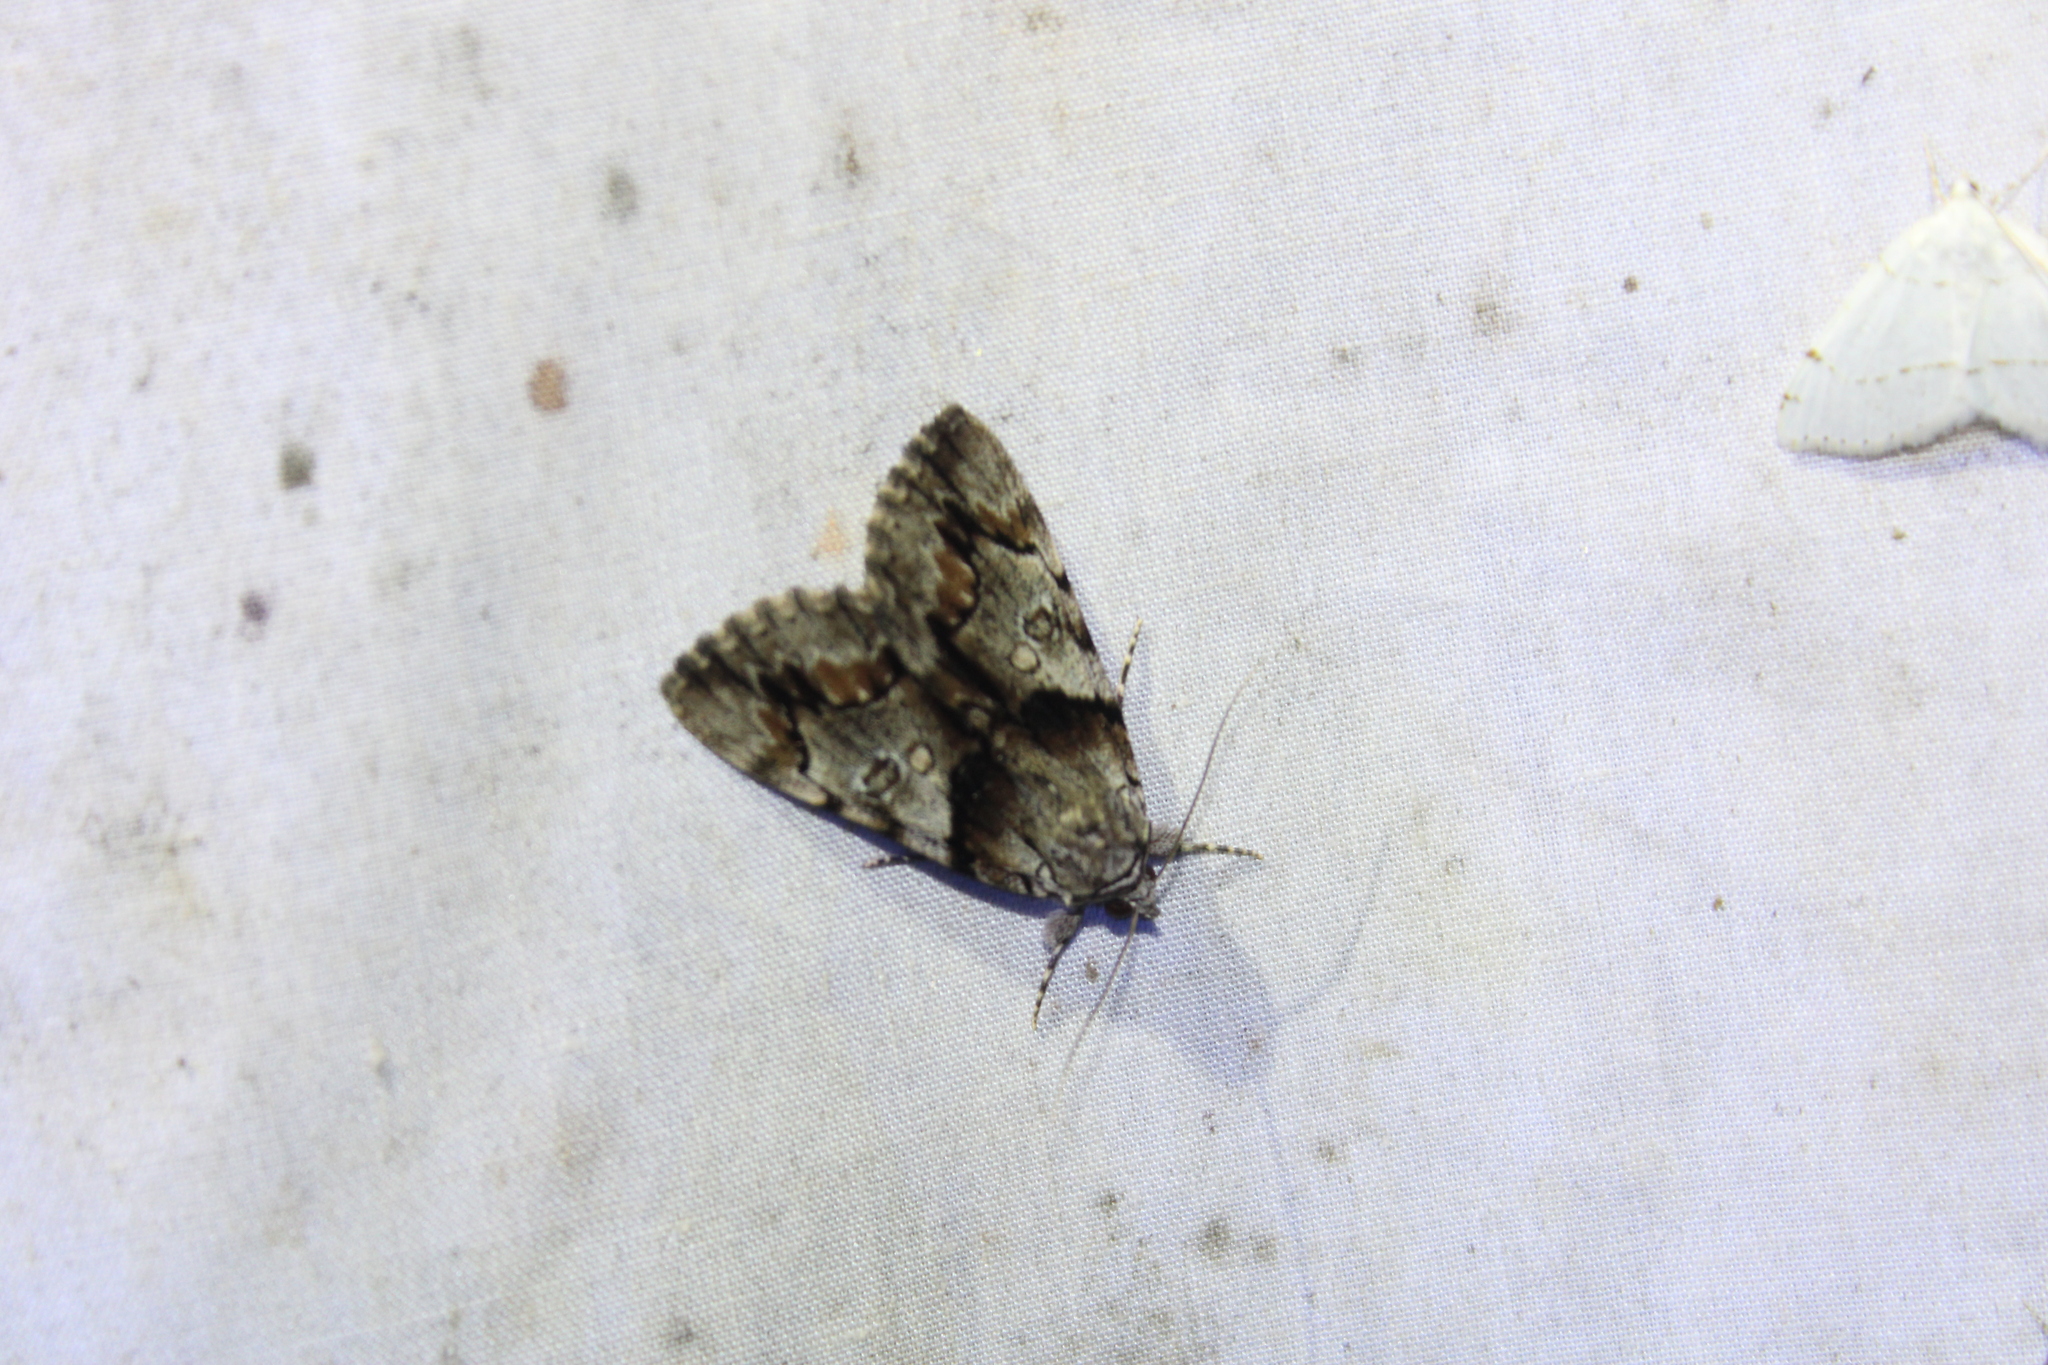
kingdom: Animalia
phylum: Arthropoda
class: Insecta
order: Lepidoptera
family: Erebidae
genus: Catocala
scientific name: Catocala blandula
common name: Charming underwing
